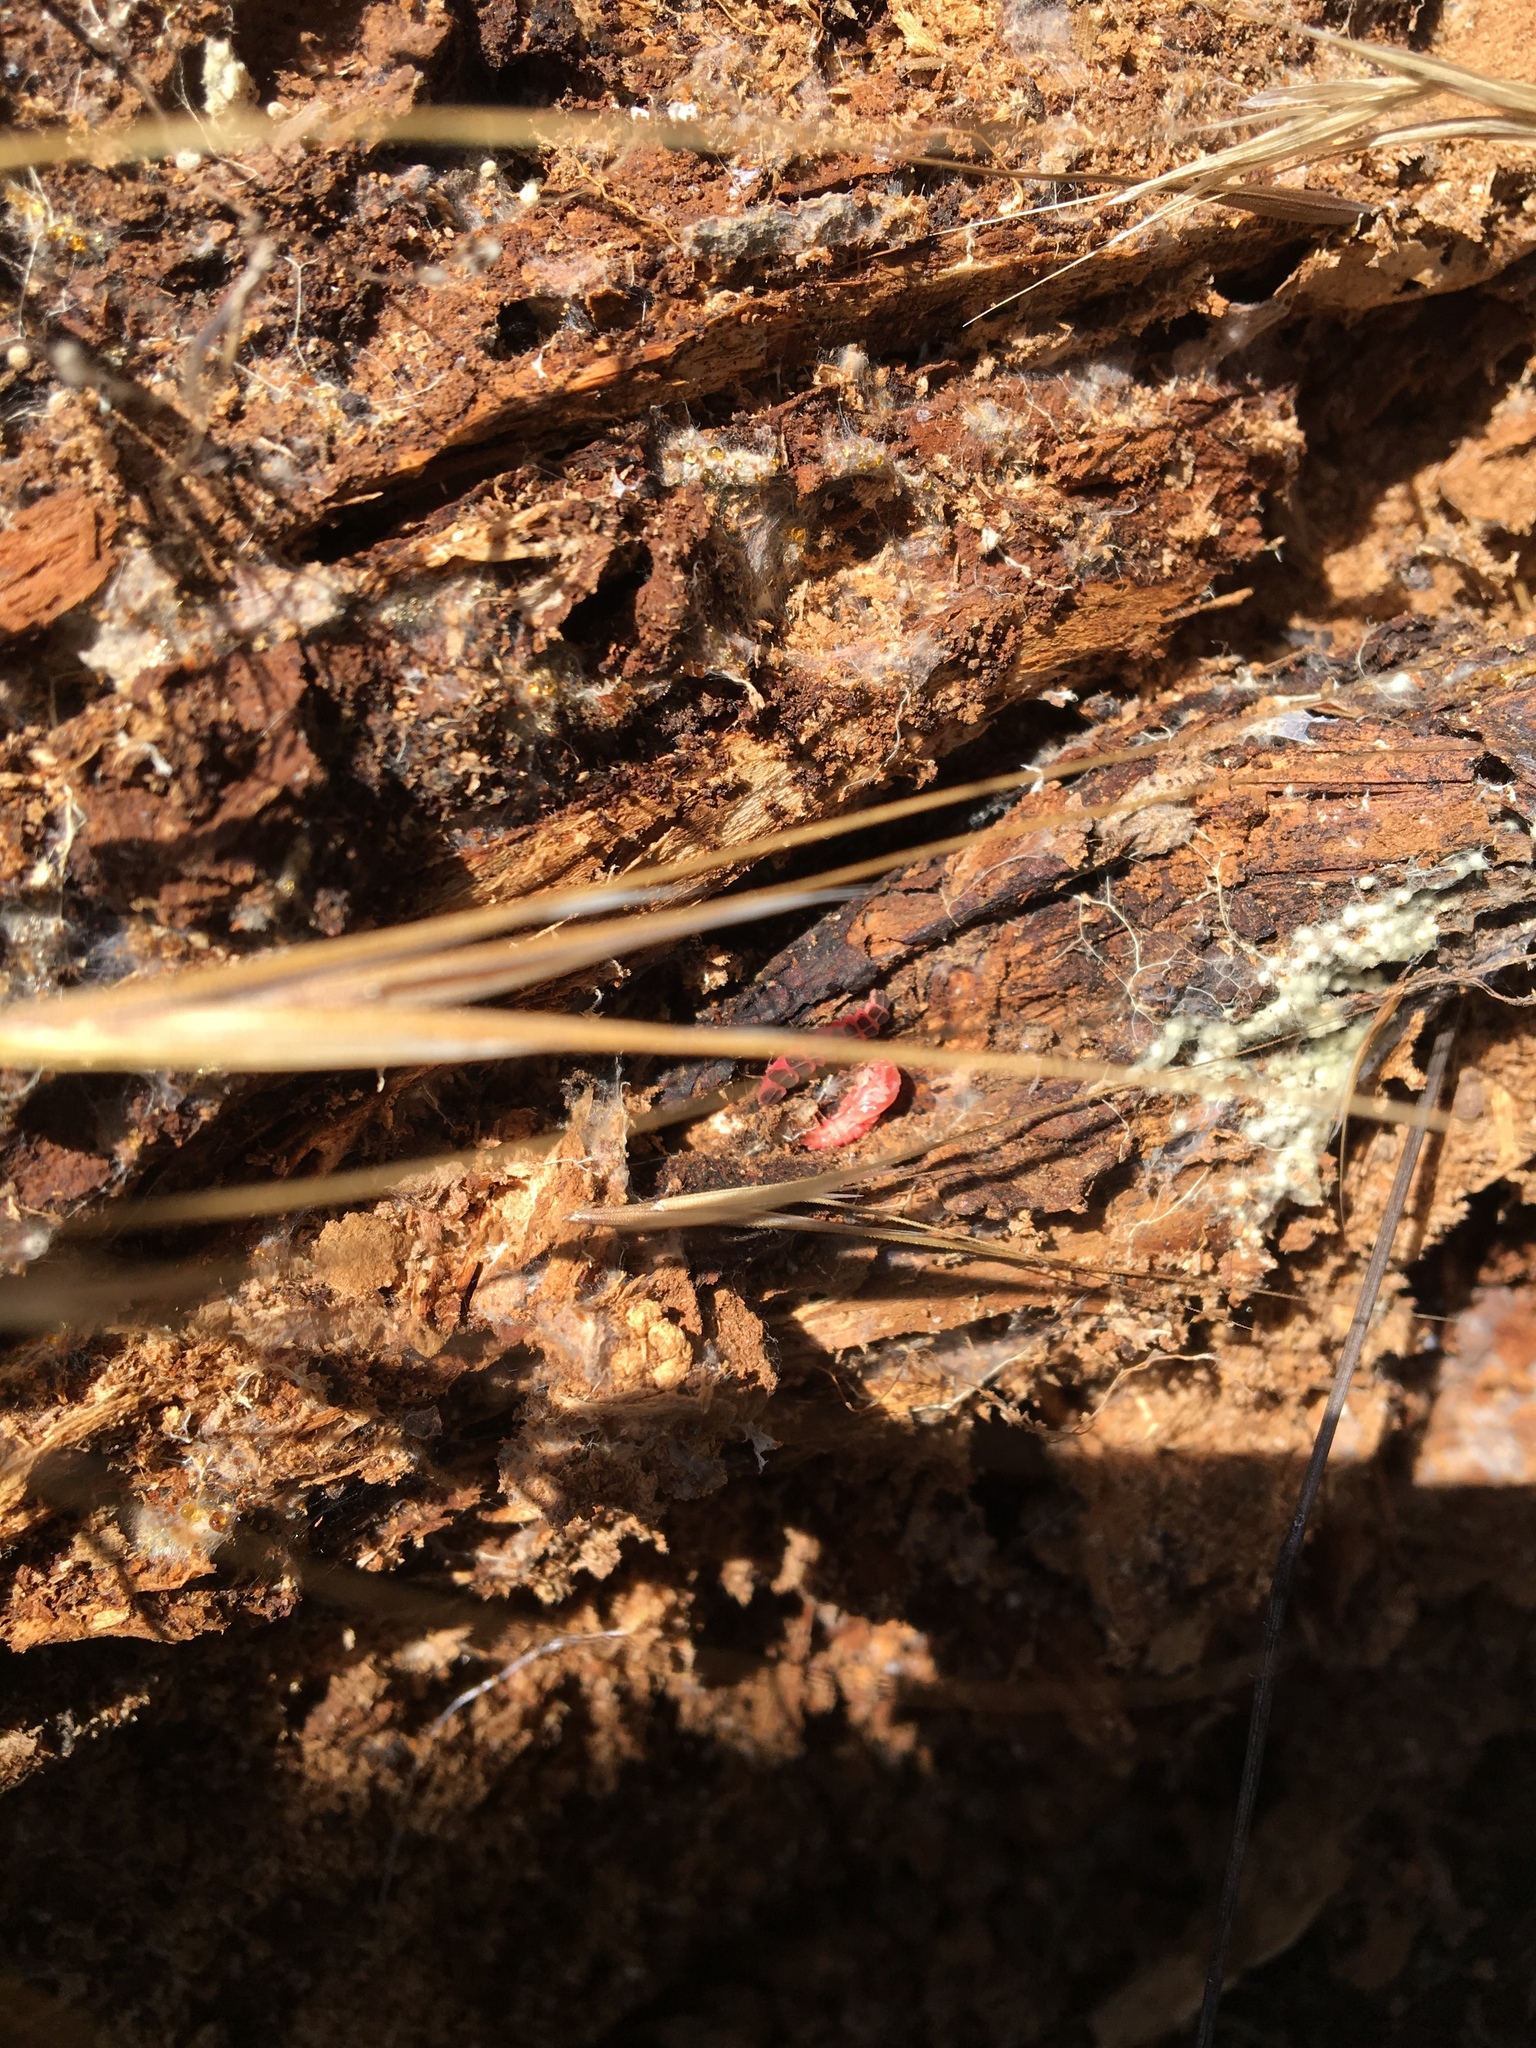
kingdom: Animalia
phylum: Arthropoda
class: Insecta
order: Coleoptera
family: Lampyridae
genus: Microphotus
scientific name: Microphotus angustus
